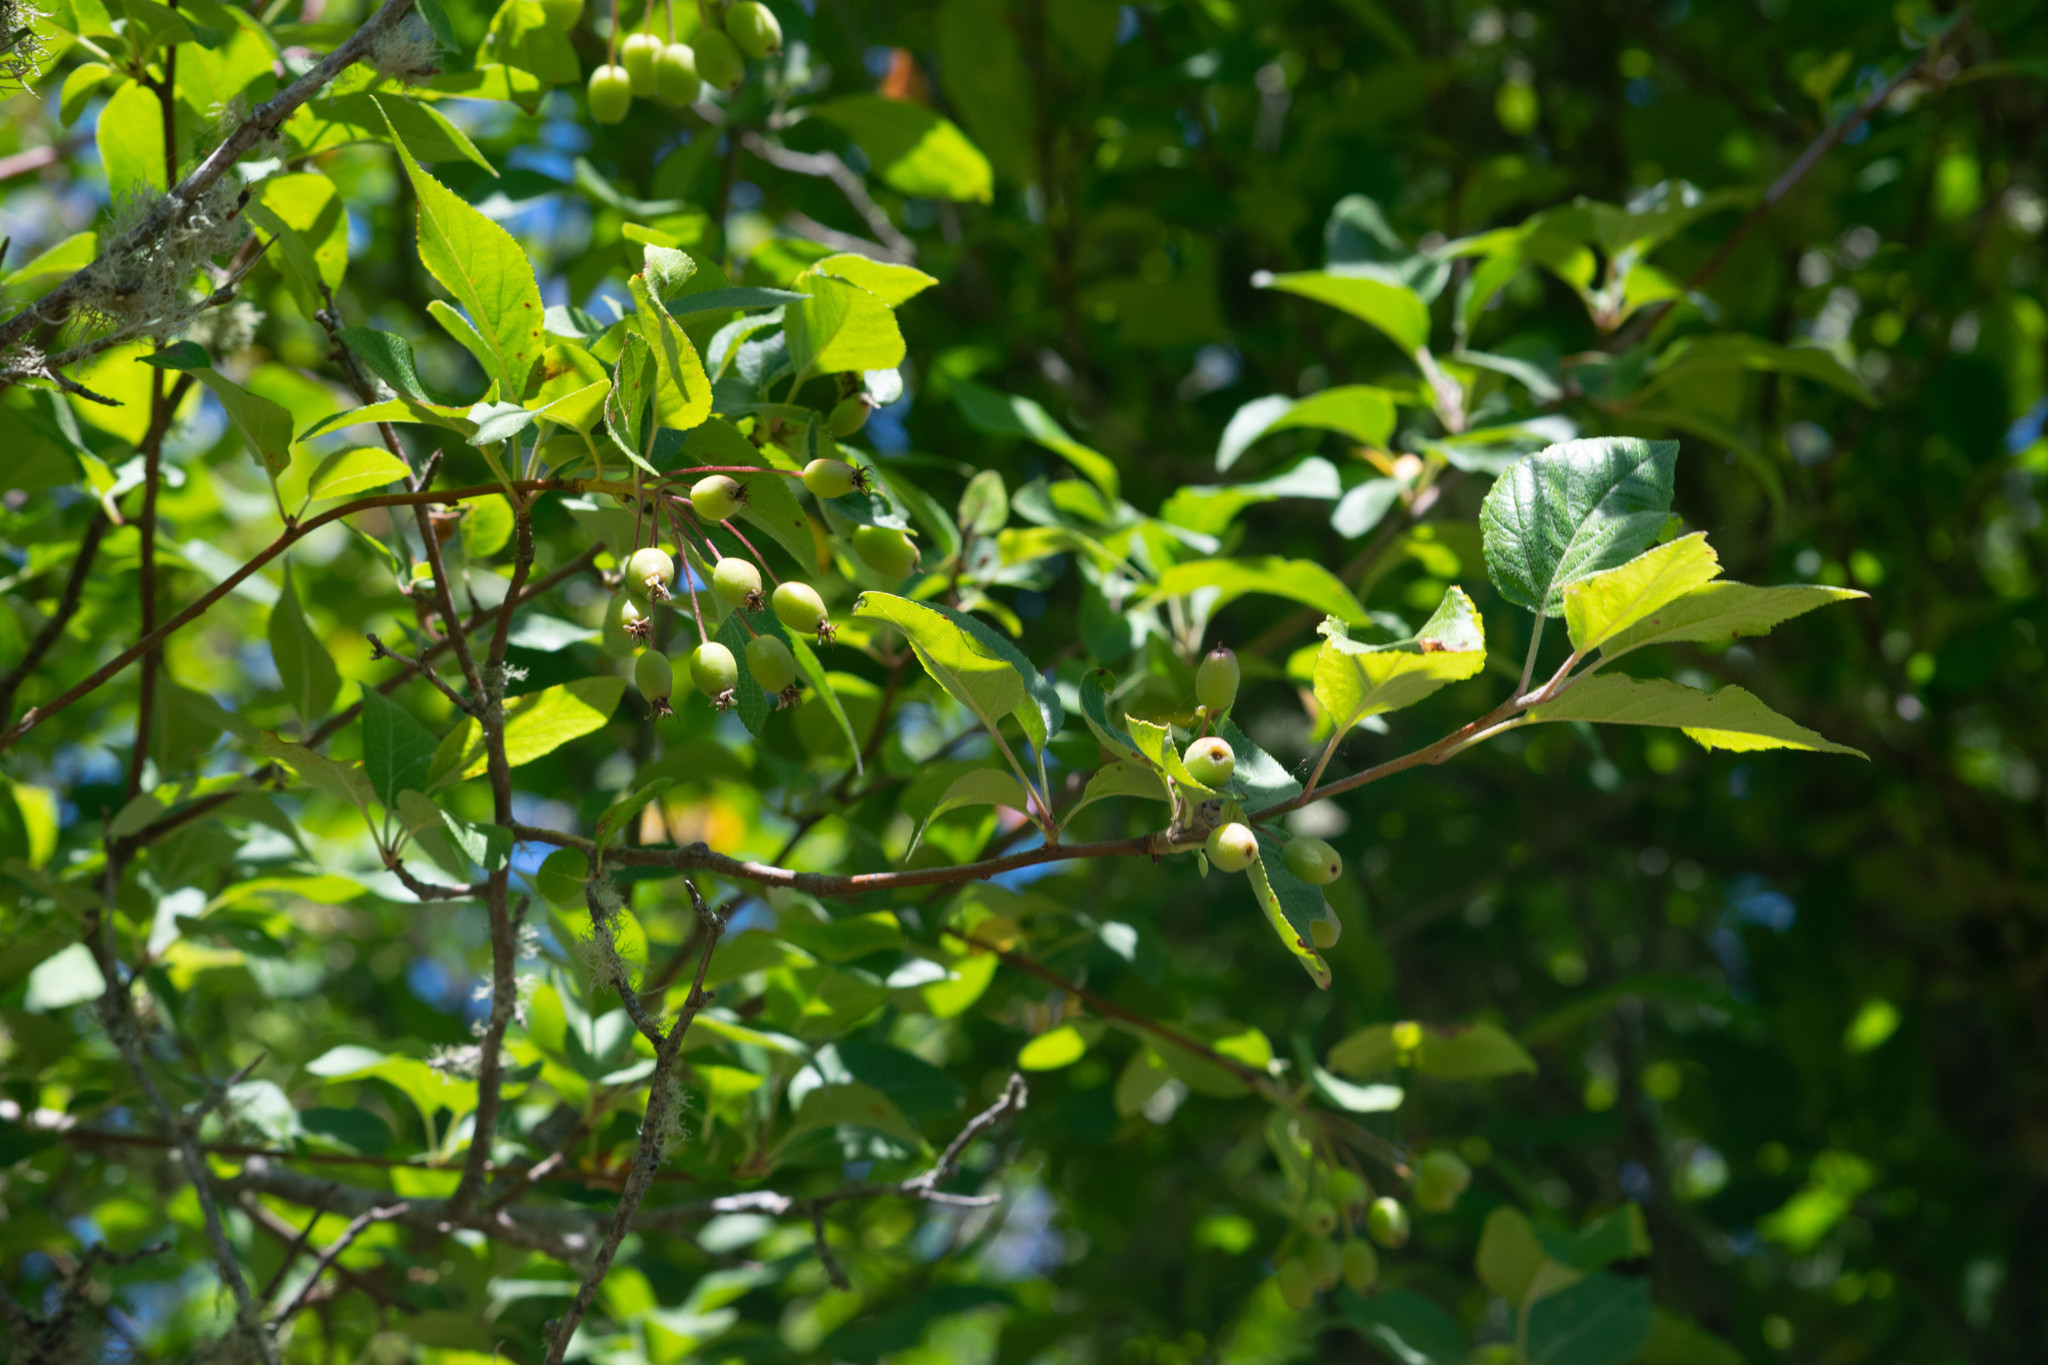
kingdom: Plantae
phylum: Tracheophyta
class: Magnoliopsida
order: Rosales
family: Rosaceae
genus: Malus
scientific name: Malus fusca
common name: Oregon crab apple
